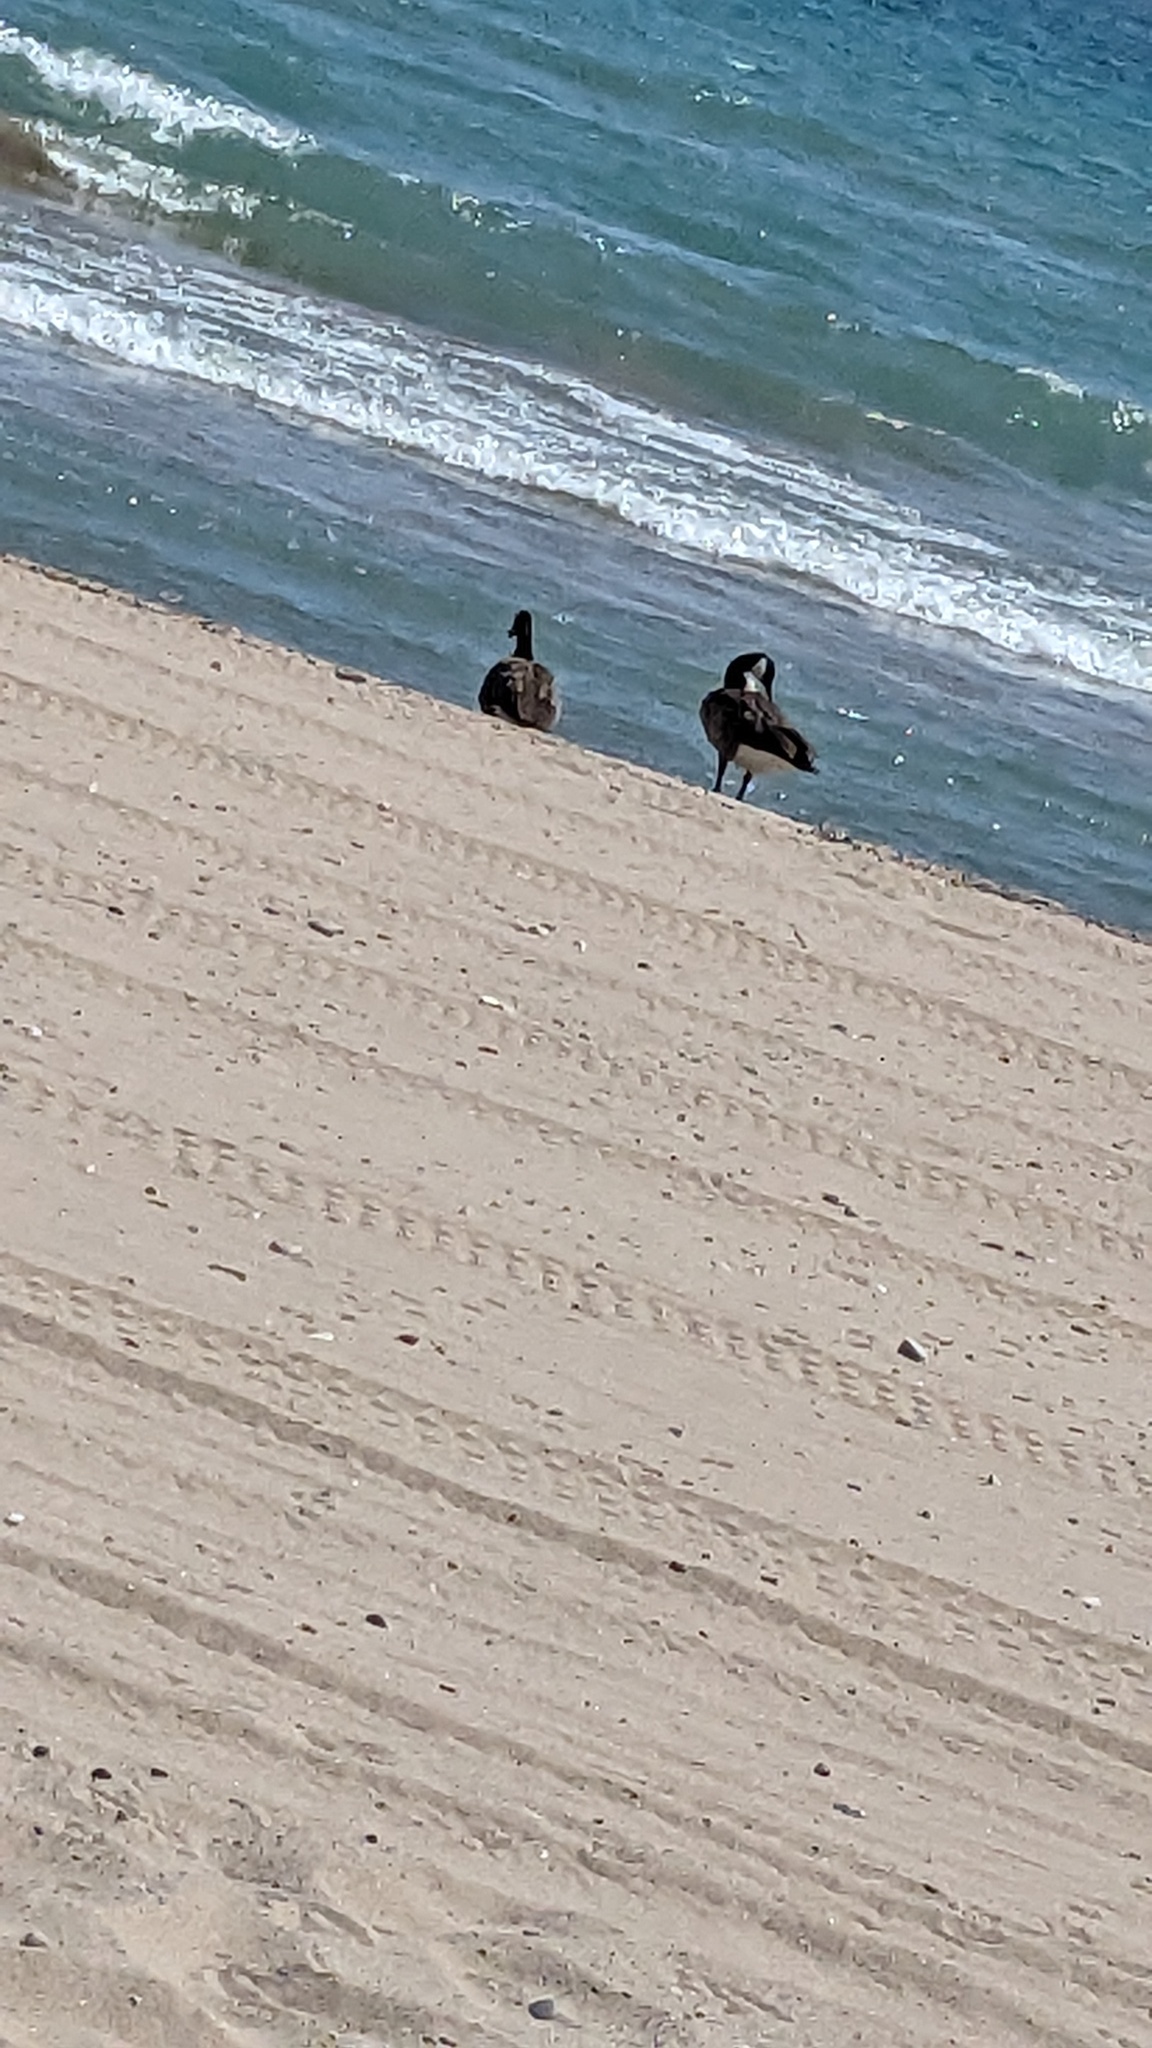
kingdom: Animalia
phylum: Chordata
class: Aves
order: Anseriformes
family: Anatidae
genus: Branta
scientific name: Branta canadensis
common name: Canada goose
